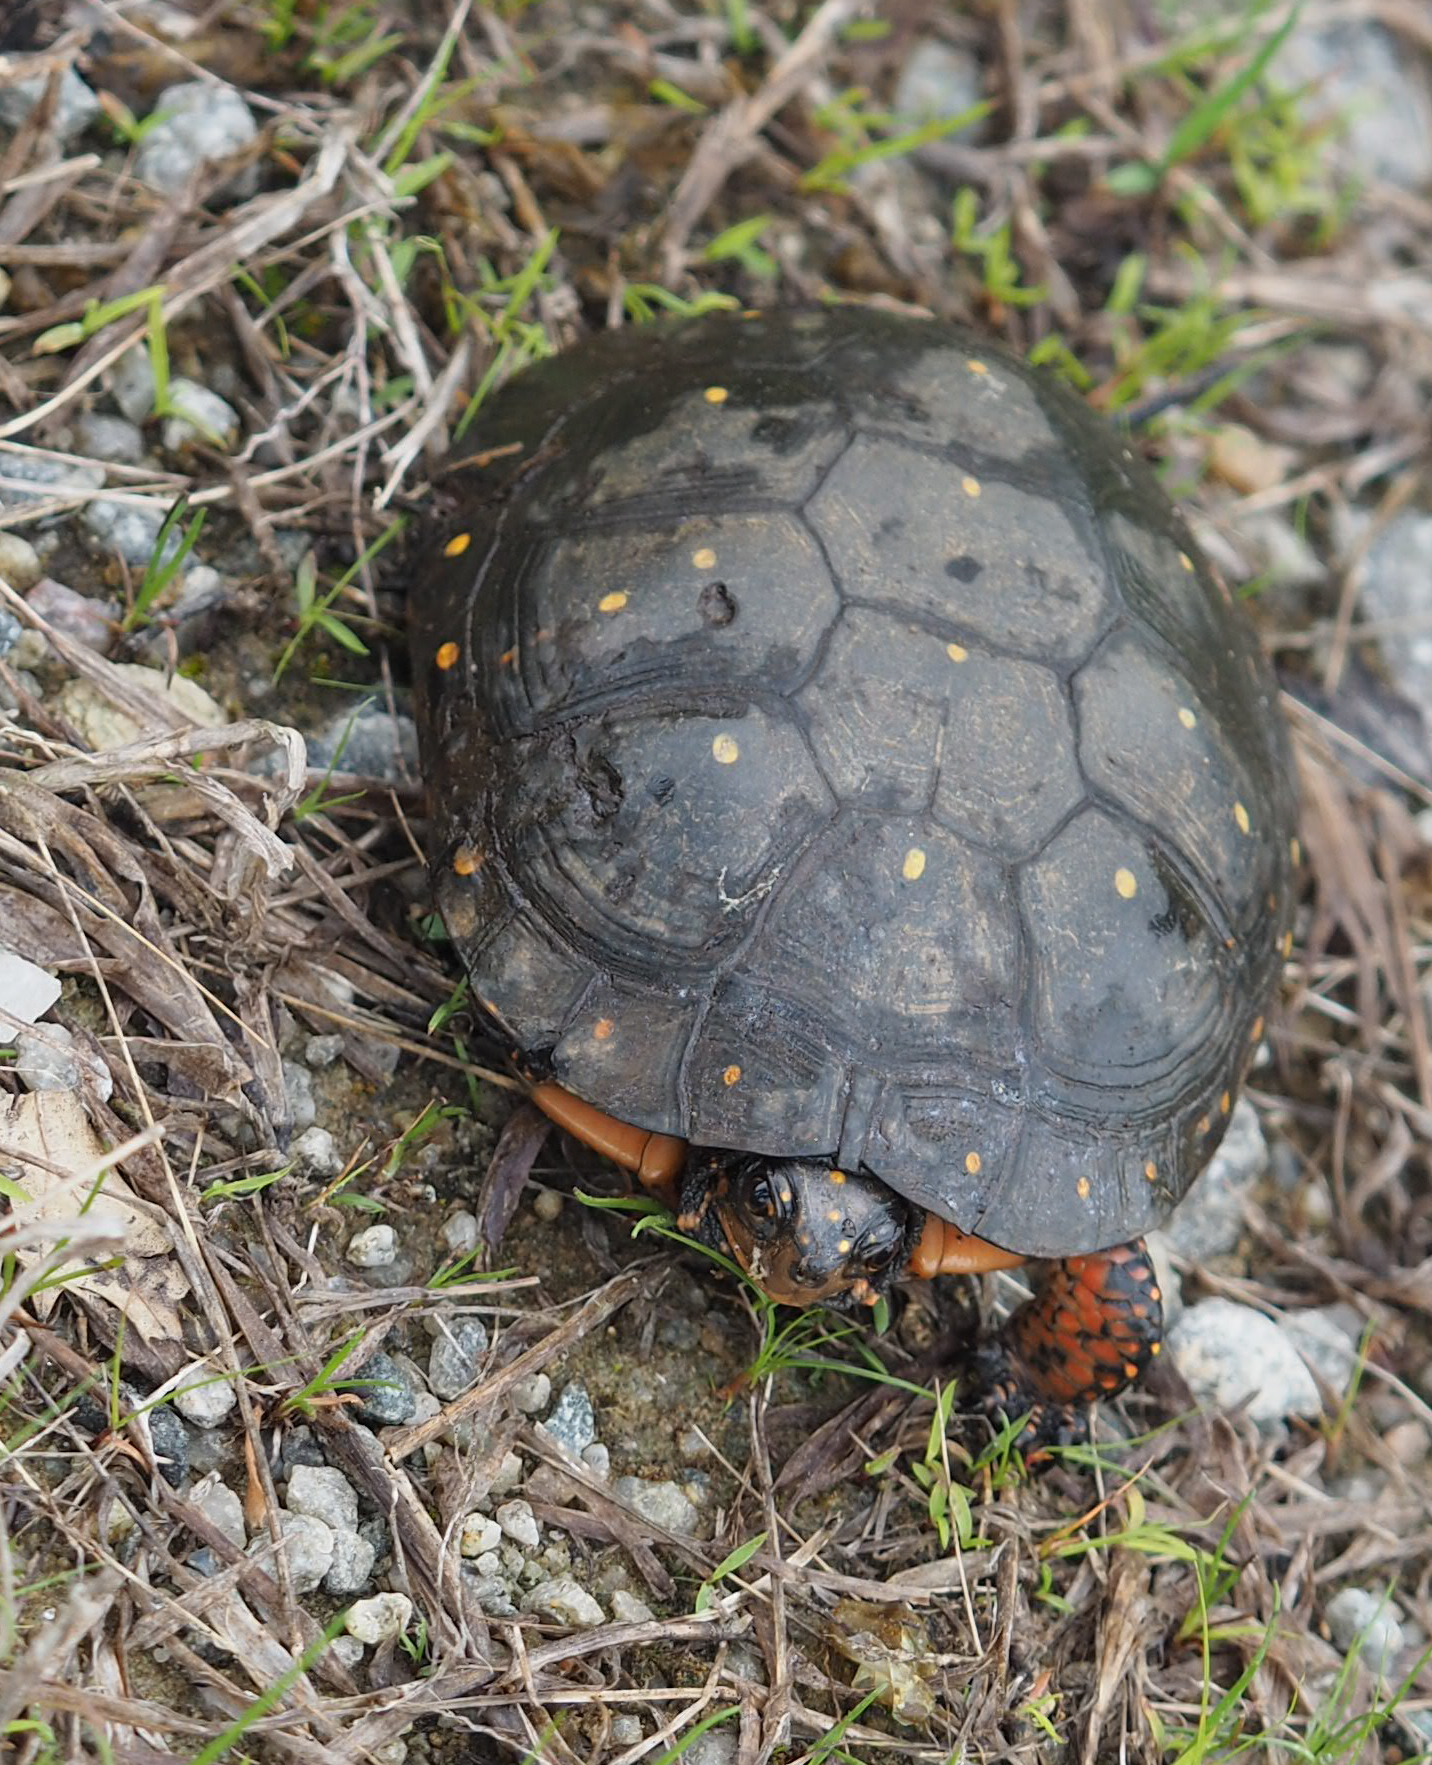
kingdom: Animalia
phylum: Chordata
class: Testudines
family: Emydidae
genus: Clemmys
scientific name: Clemmys guttata
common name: Spotted turtle
